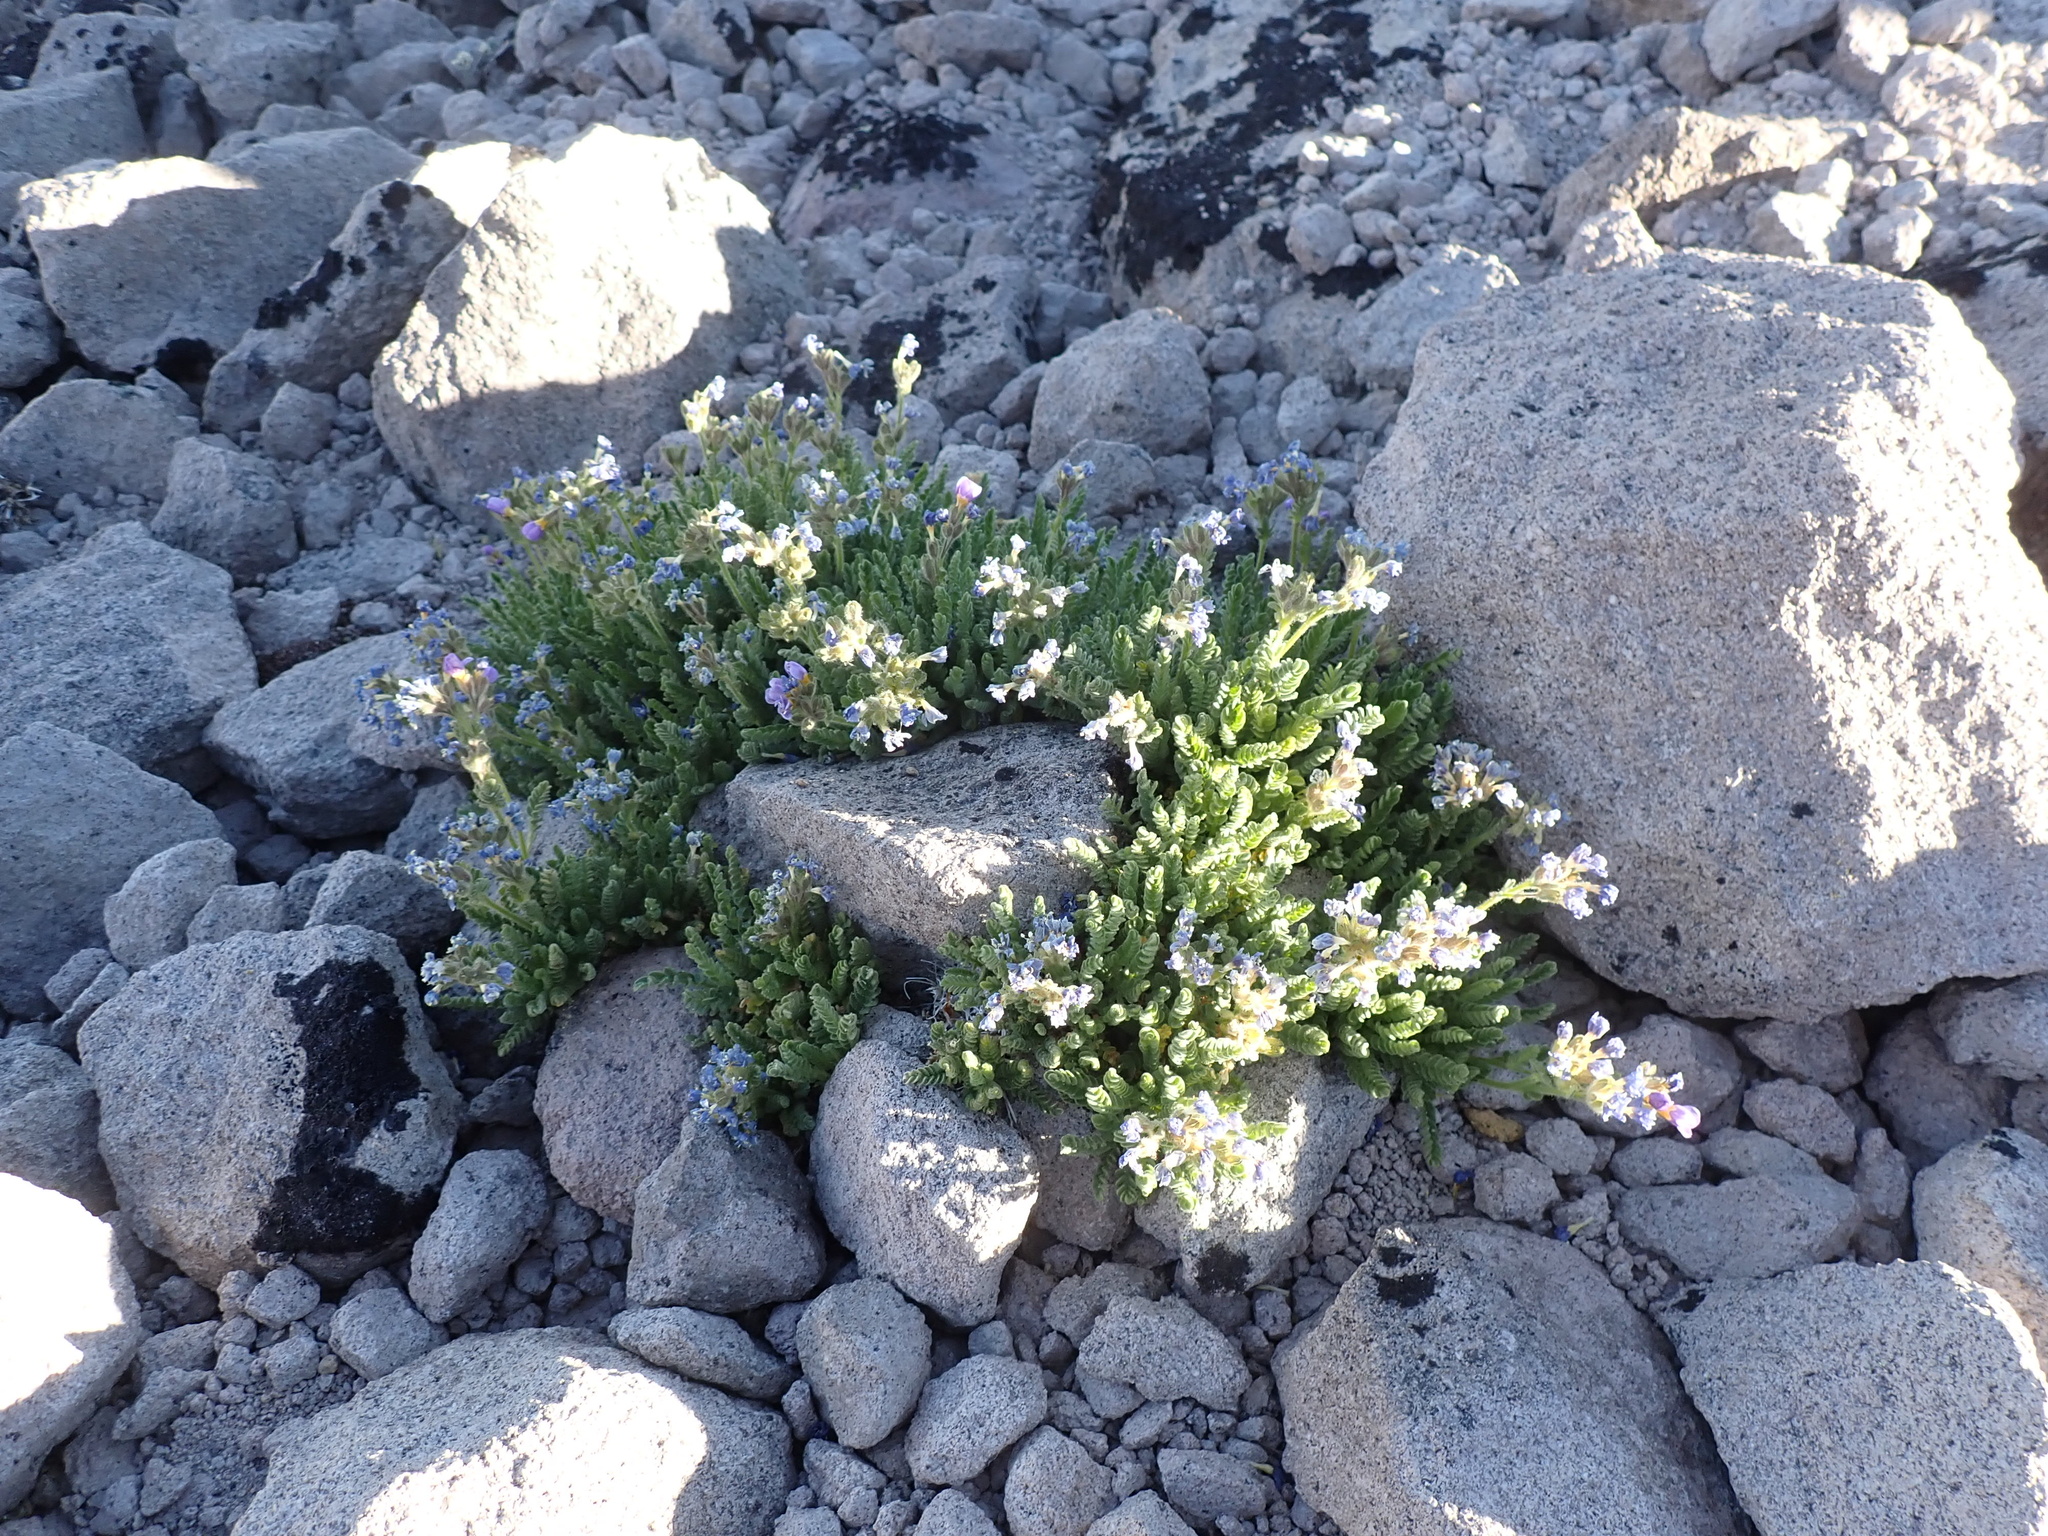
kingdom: Plantae
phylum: Tracheophyta
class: Magnoliopsida
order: Ericales
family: Polemoniaceae
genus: Polemonium
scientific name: Polemonium elegans
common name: Elegant jacob's-ladder
